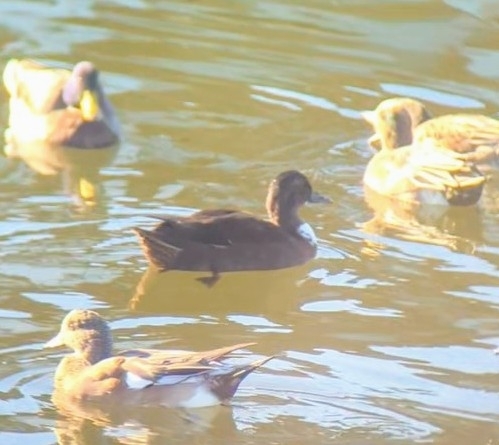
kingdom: Animalia
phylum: Chordata
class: Aves
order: Anseriformes
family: Anatidae
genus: Anas
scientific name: Anas platyrhynchos
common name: Mallard
